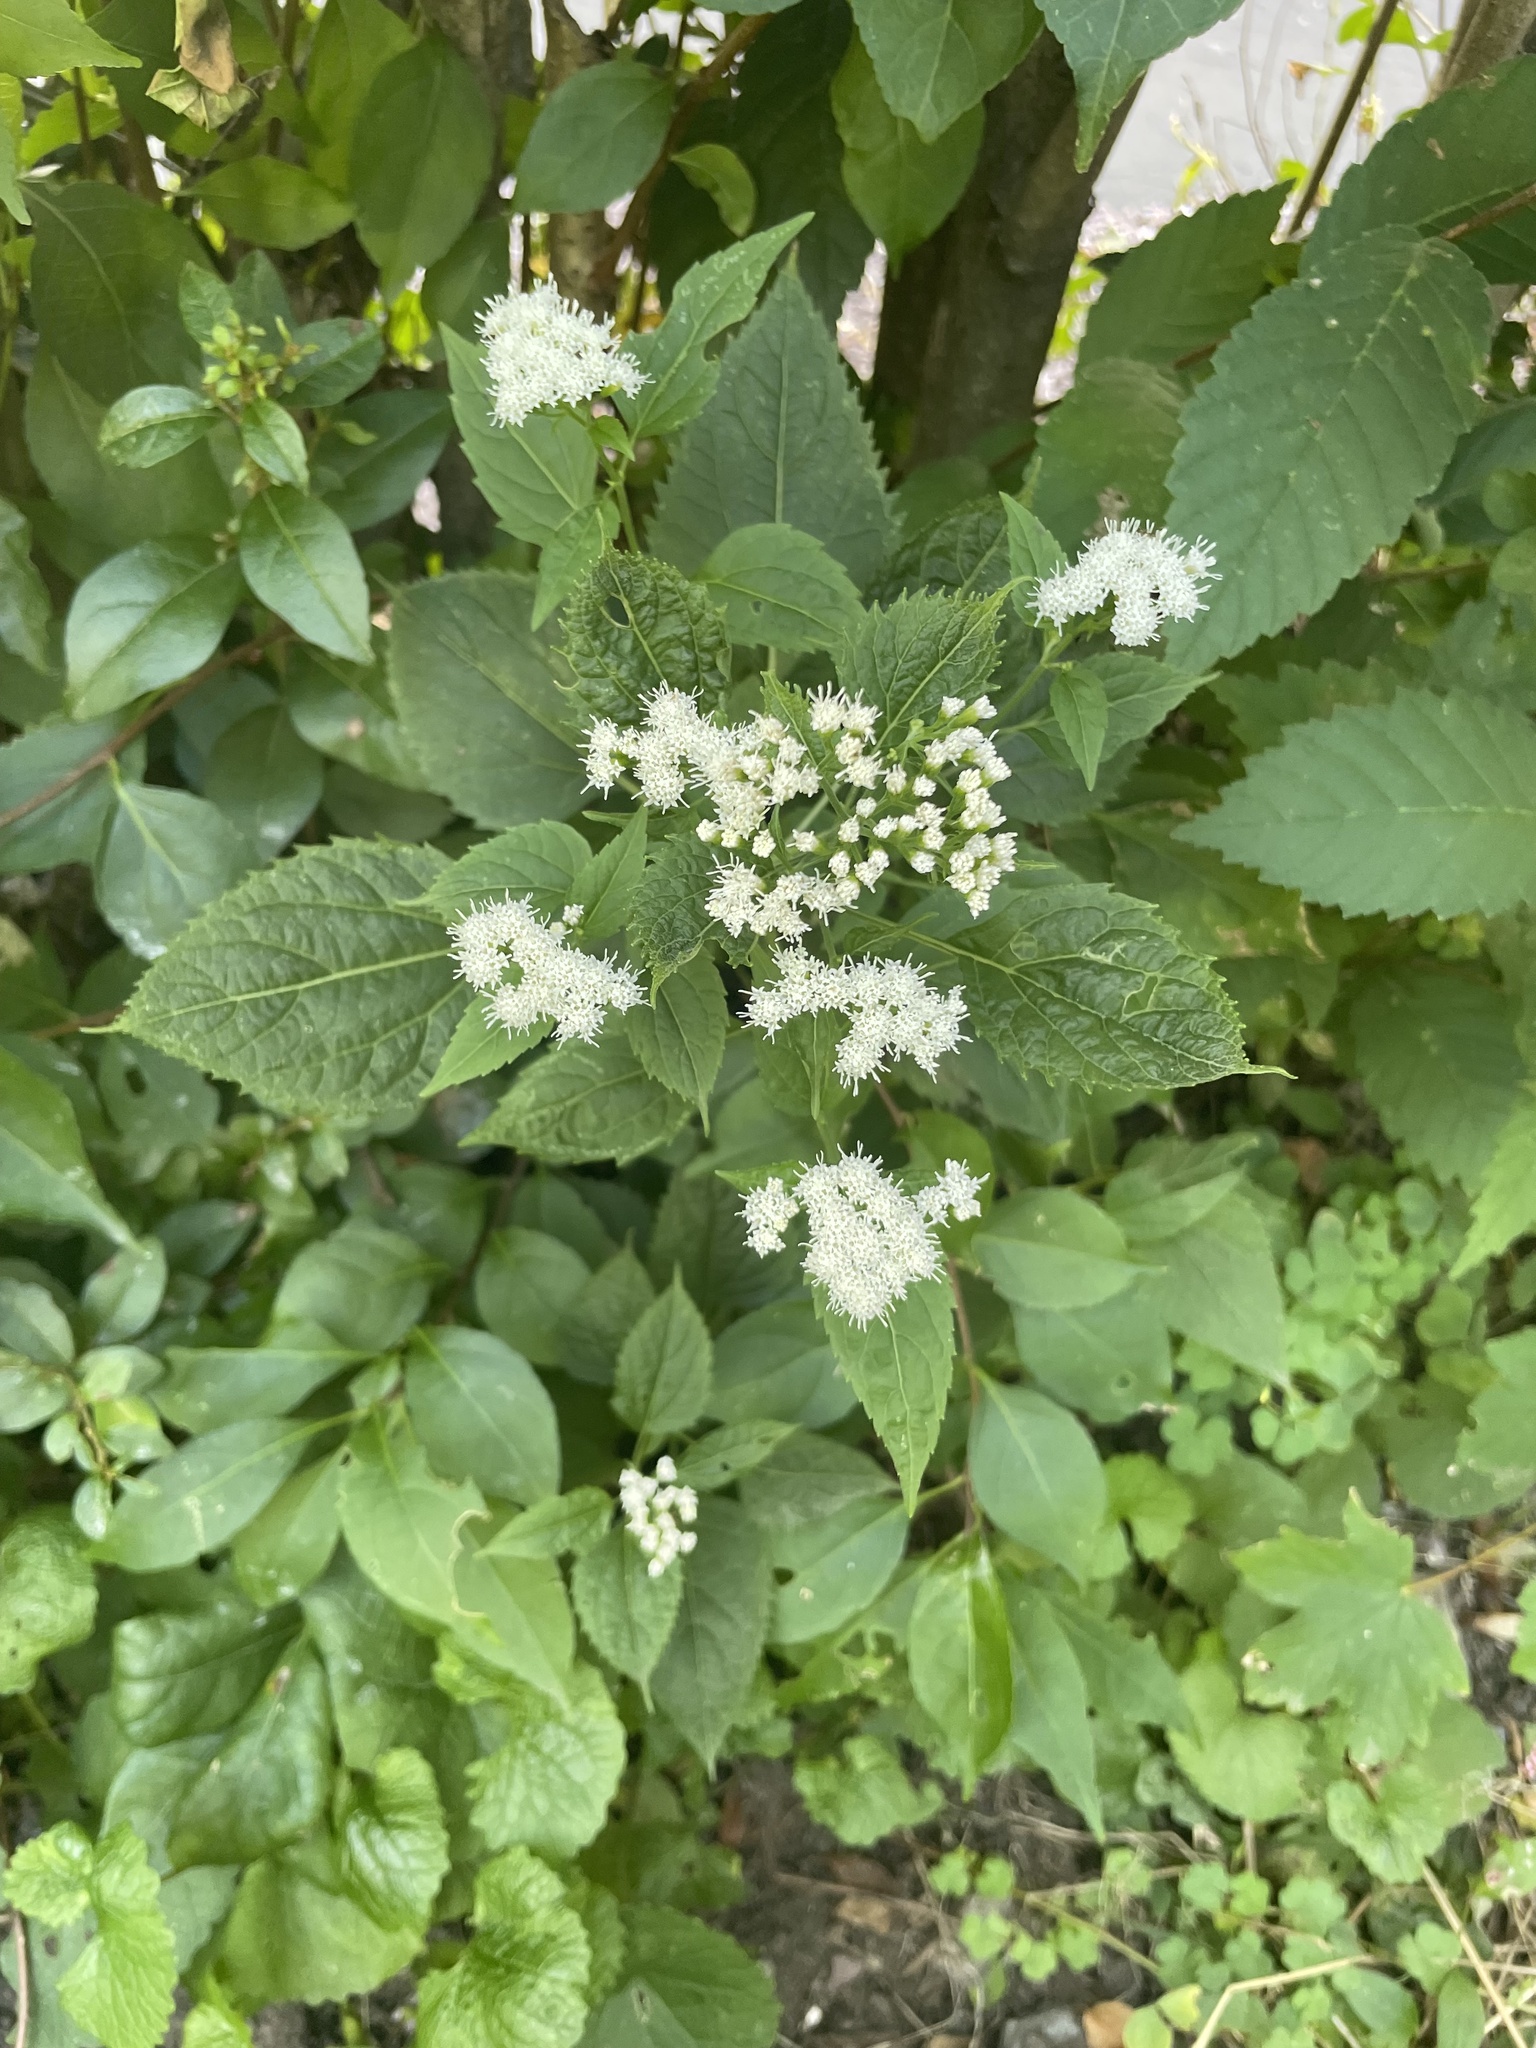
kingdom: Plantae
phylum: Tracheophyta
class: Magnoliopsida
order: Asterales
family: Asteraceae
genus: Ageratina
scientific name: Ageratina altissima
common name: White snakeroot
